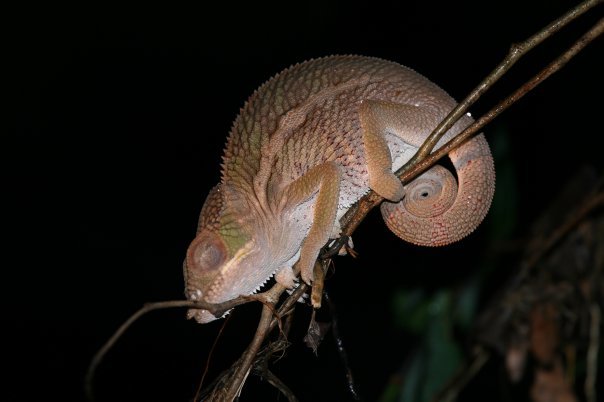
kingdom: Animalia
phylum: Chordata
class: Squamata
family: Chamaeleonidae
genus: Furcifer
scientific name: Furcifer pardalis
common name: Panther chameleon
